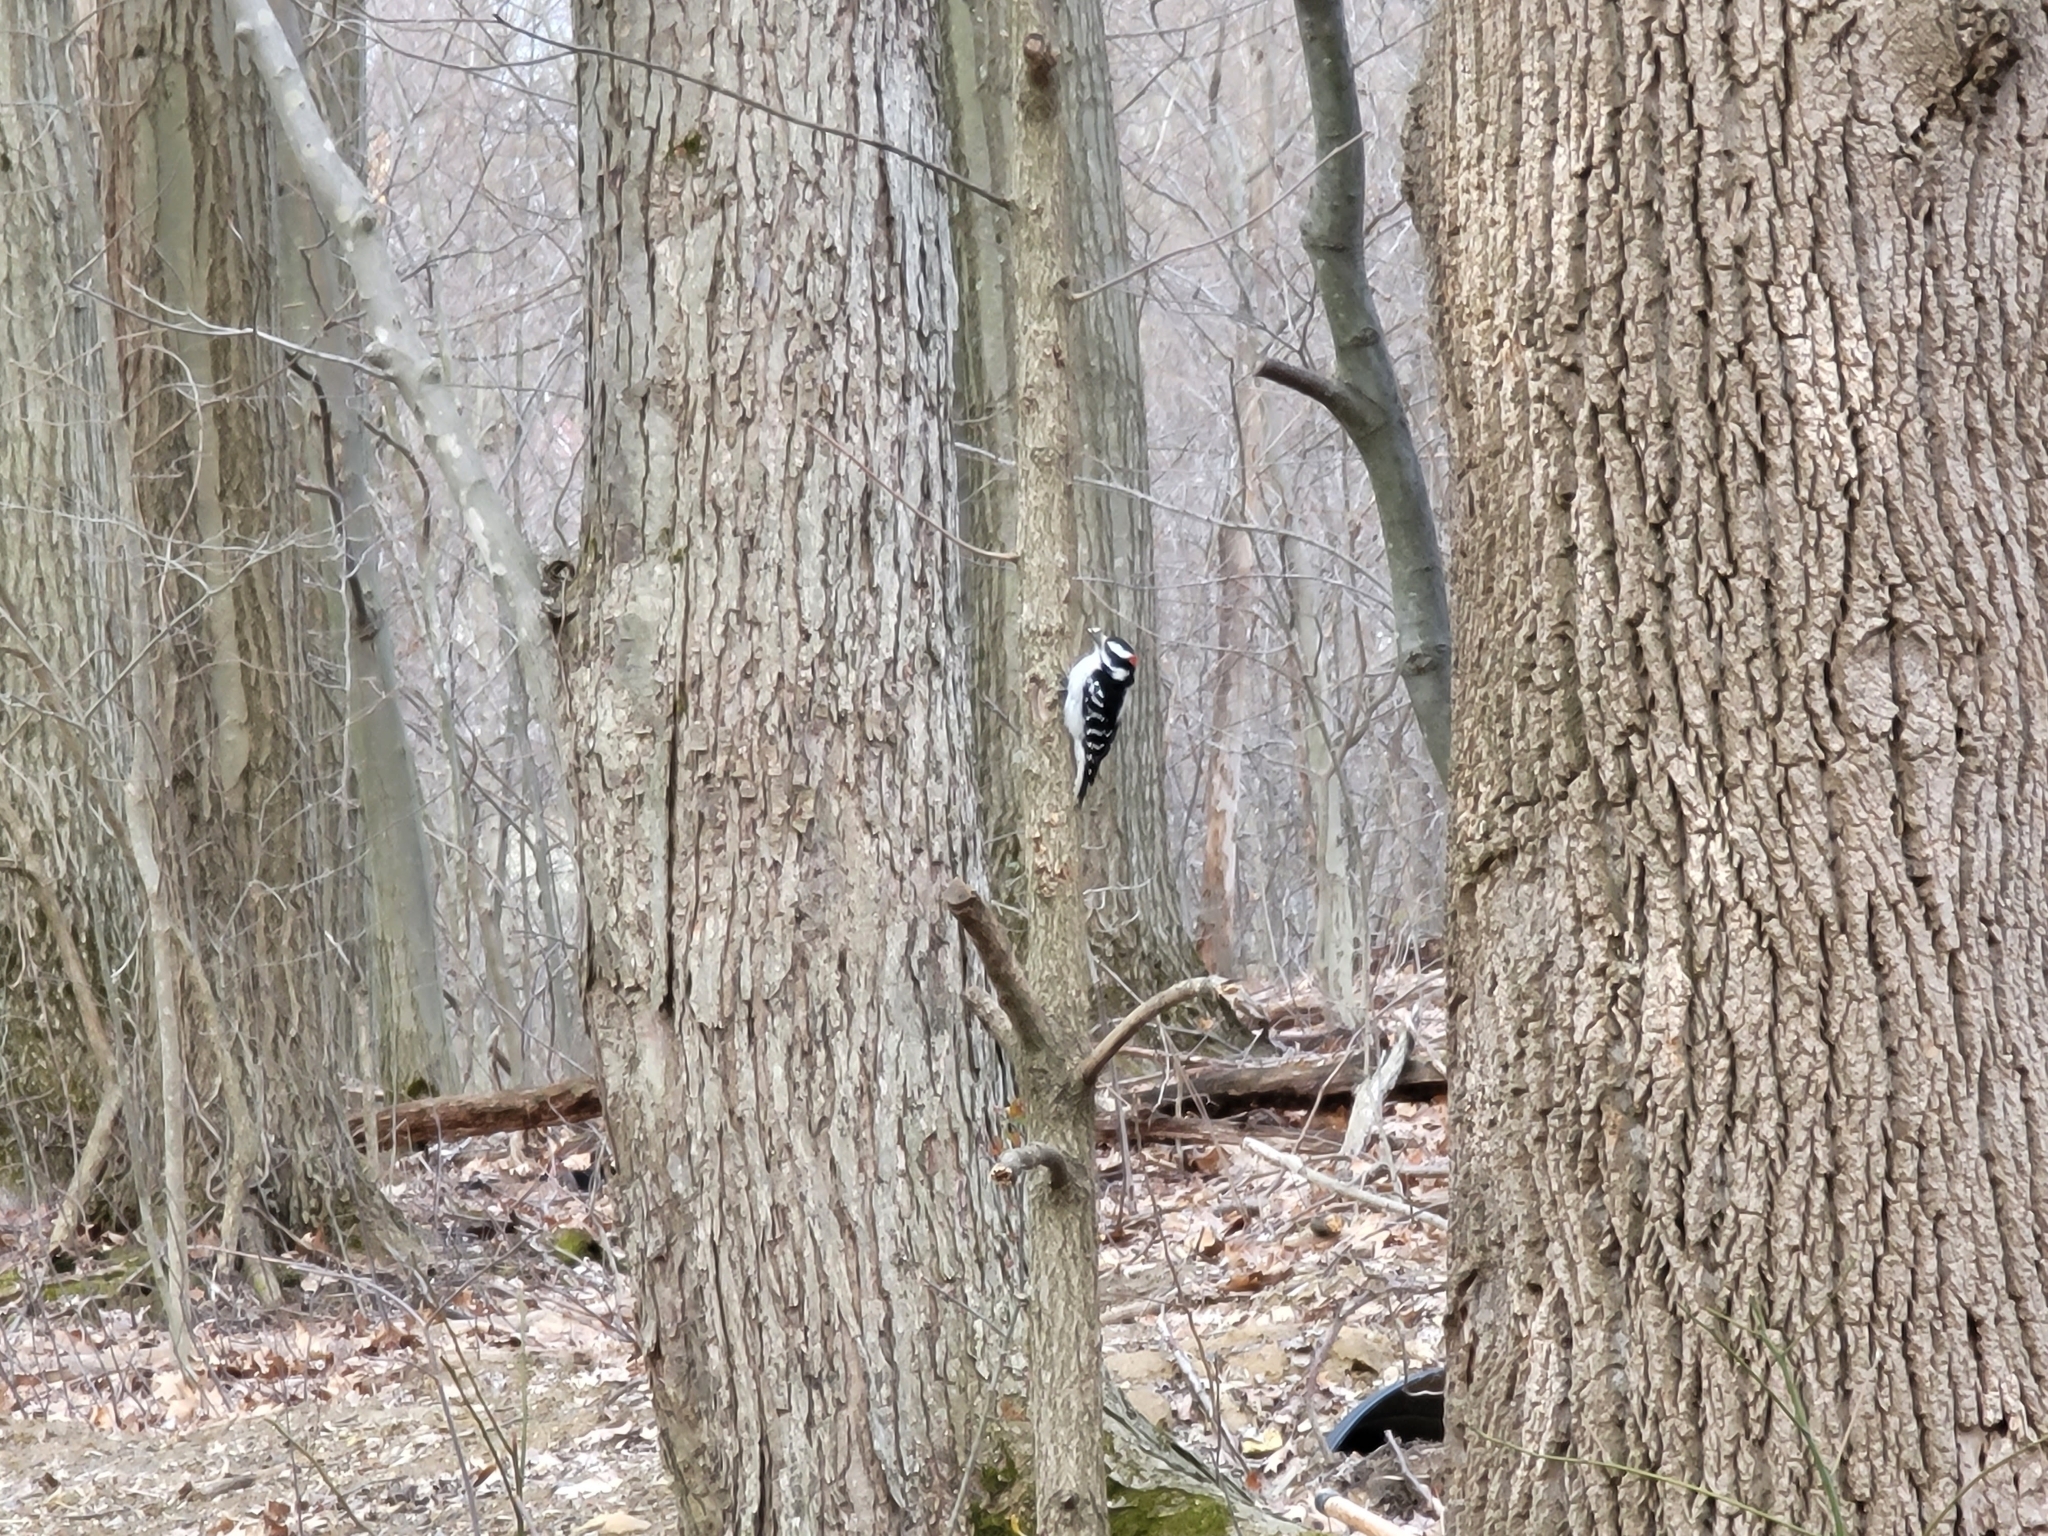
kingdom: Animalia
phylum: Chordata
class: Aves
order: Piciformes
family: Picidae
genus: Dryobates
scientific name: Dryobates pubescens
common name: Downy woodpecker
